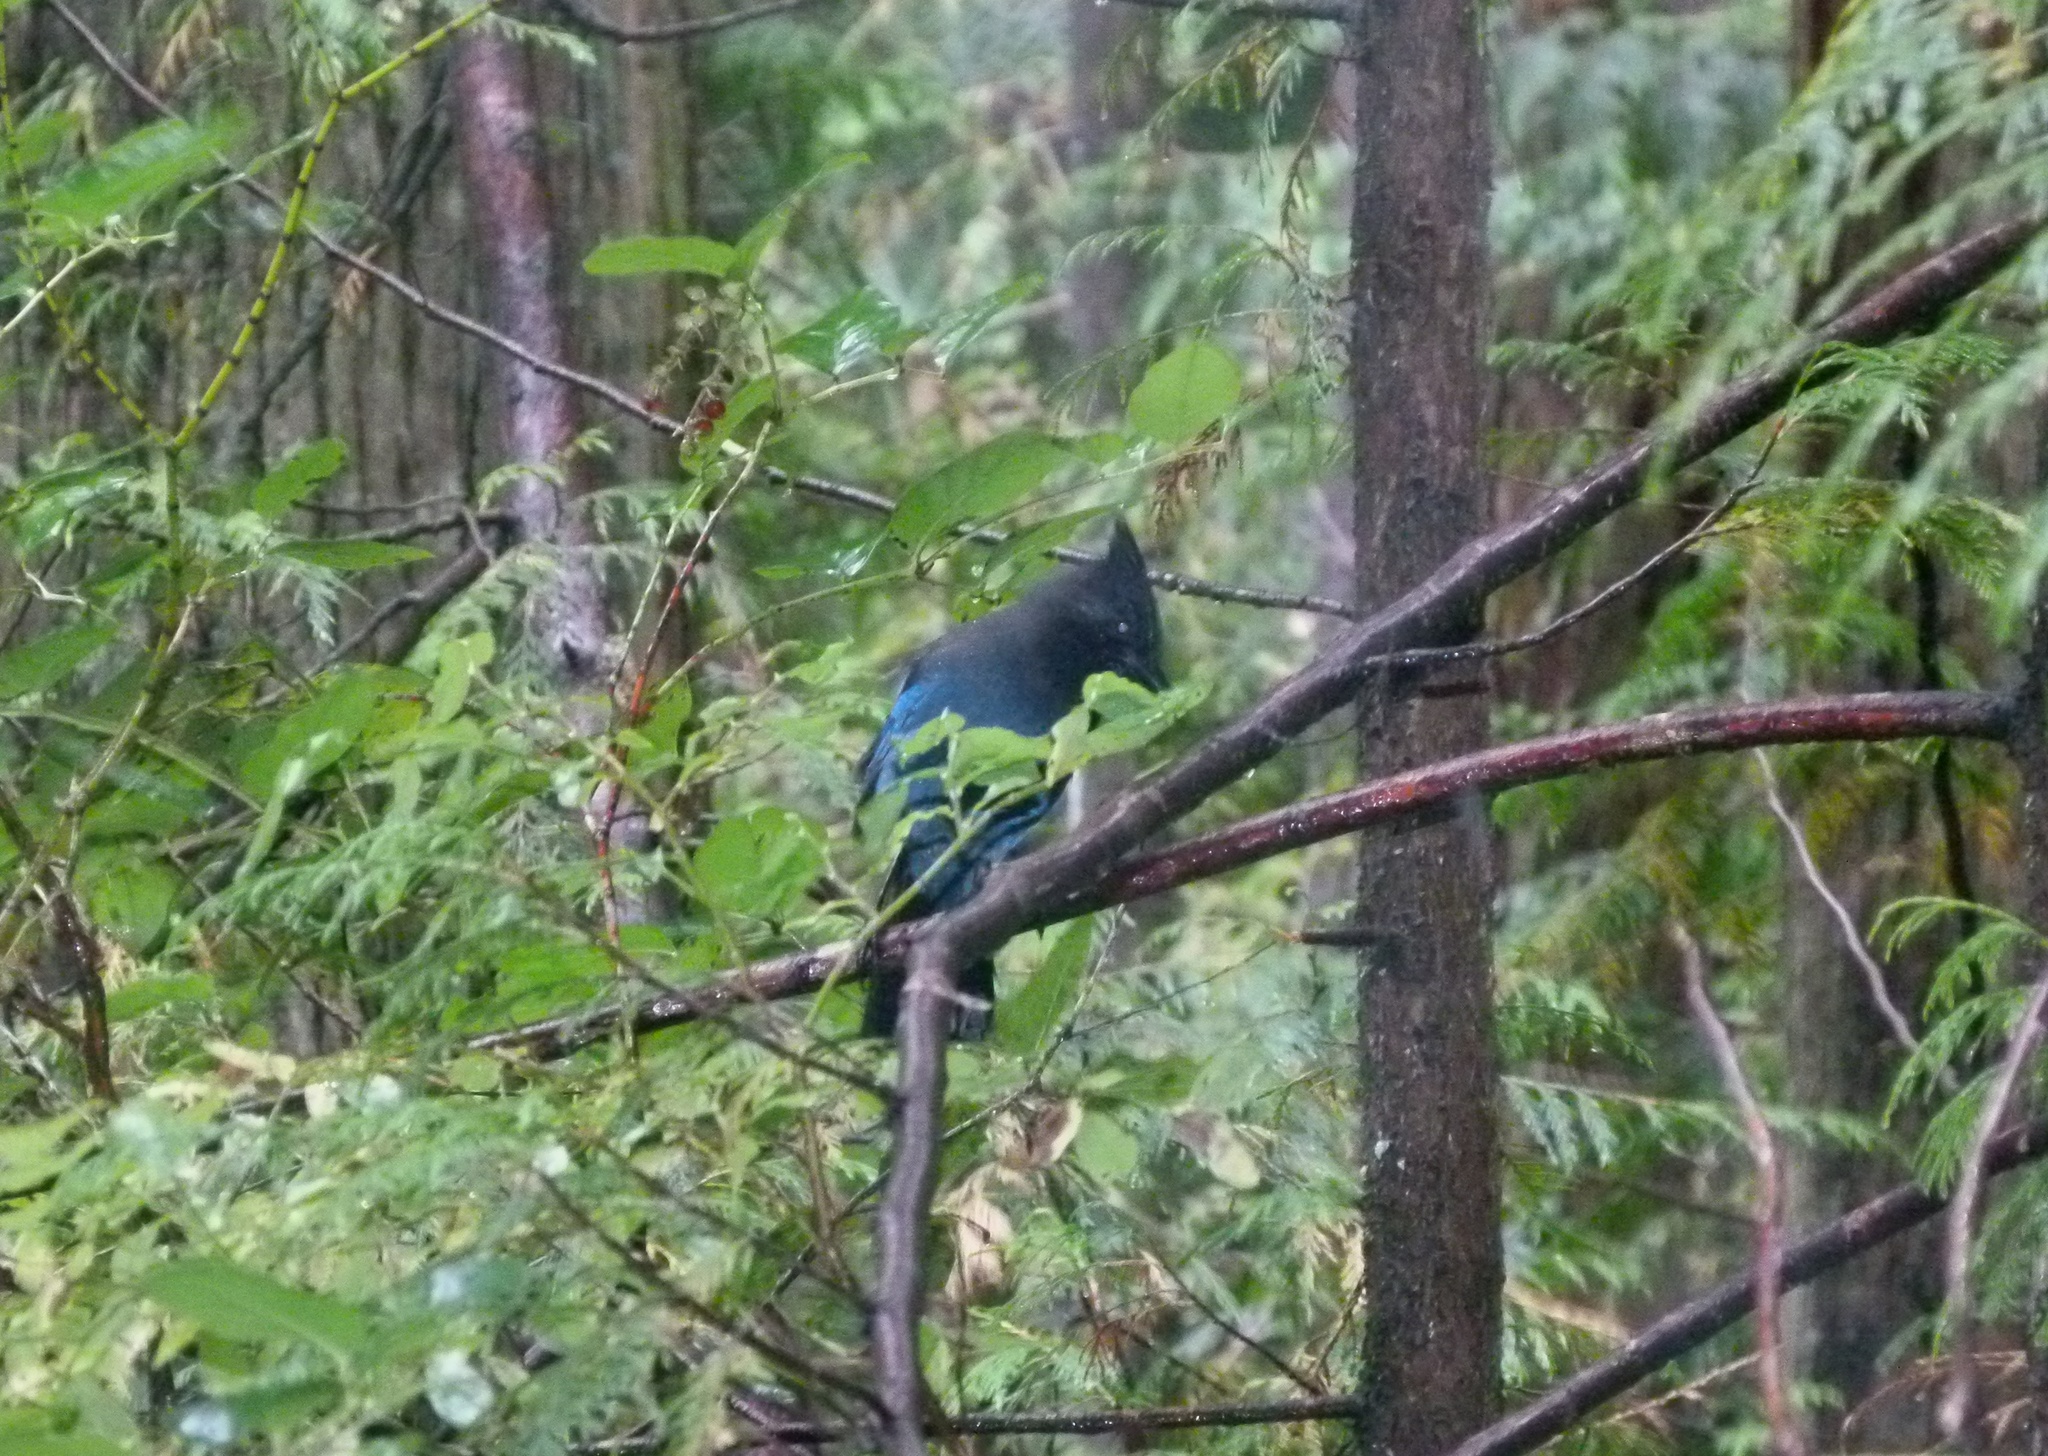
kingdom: Animalia
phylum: Chordata
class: Aves
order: Passeriformes
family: Corvidae
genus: Cyanocitta
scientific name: Cyanocitta stelleri
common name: Steller's jay
